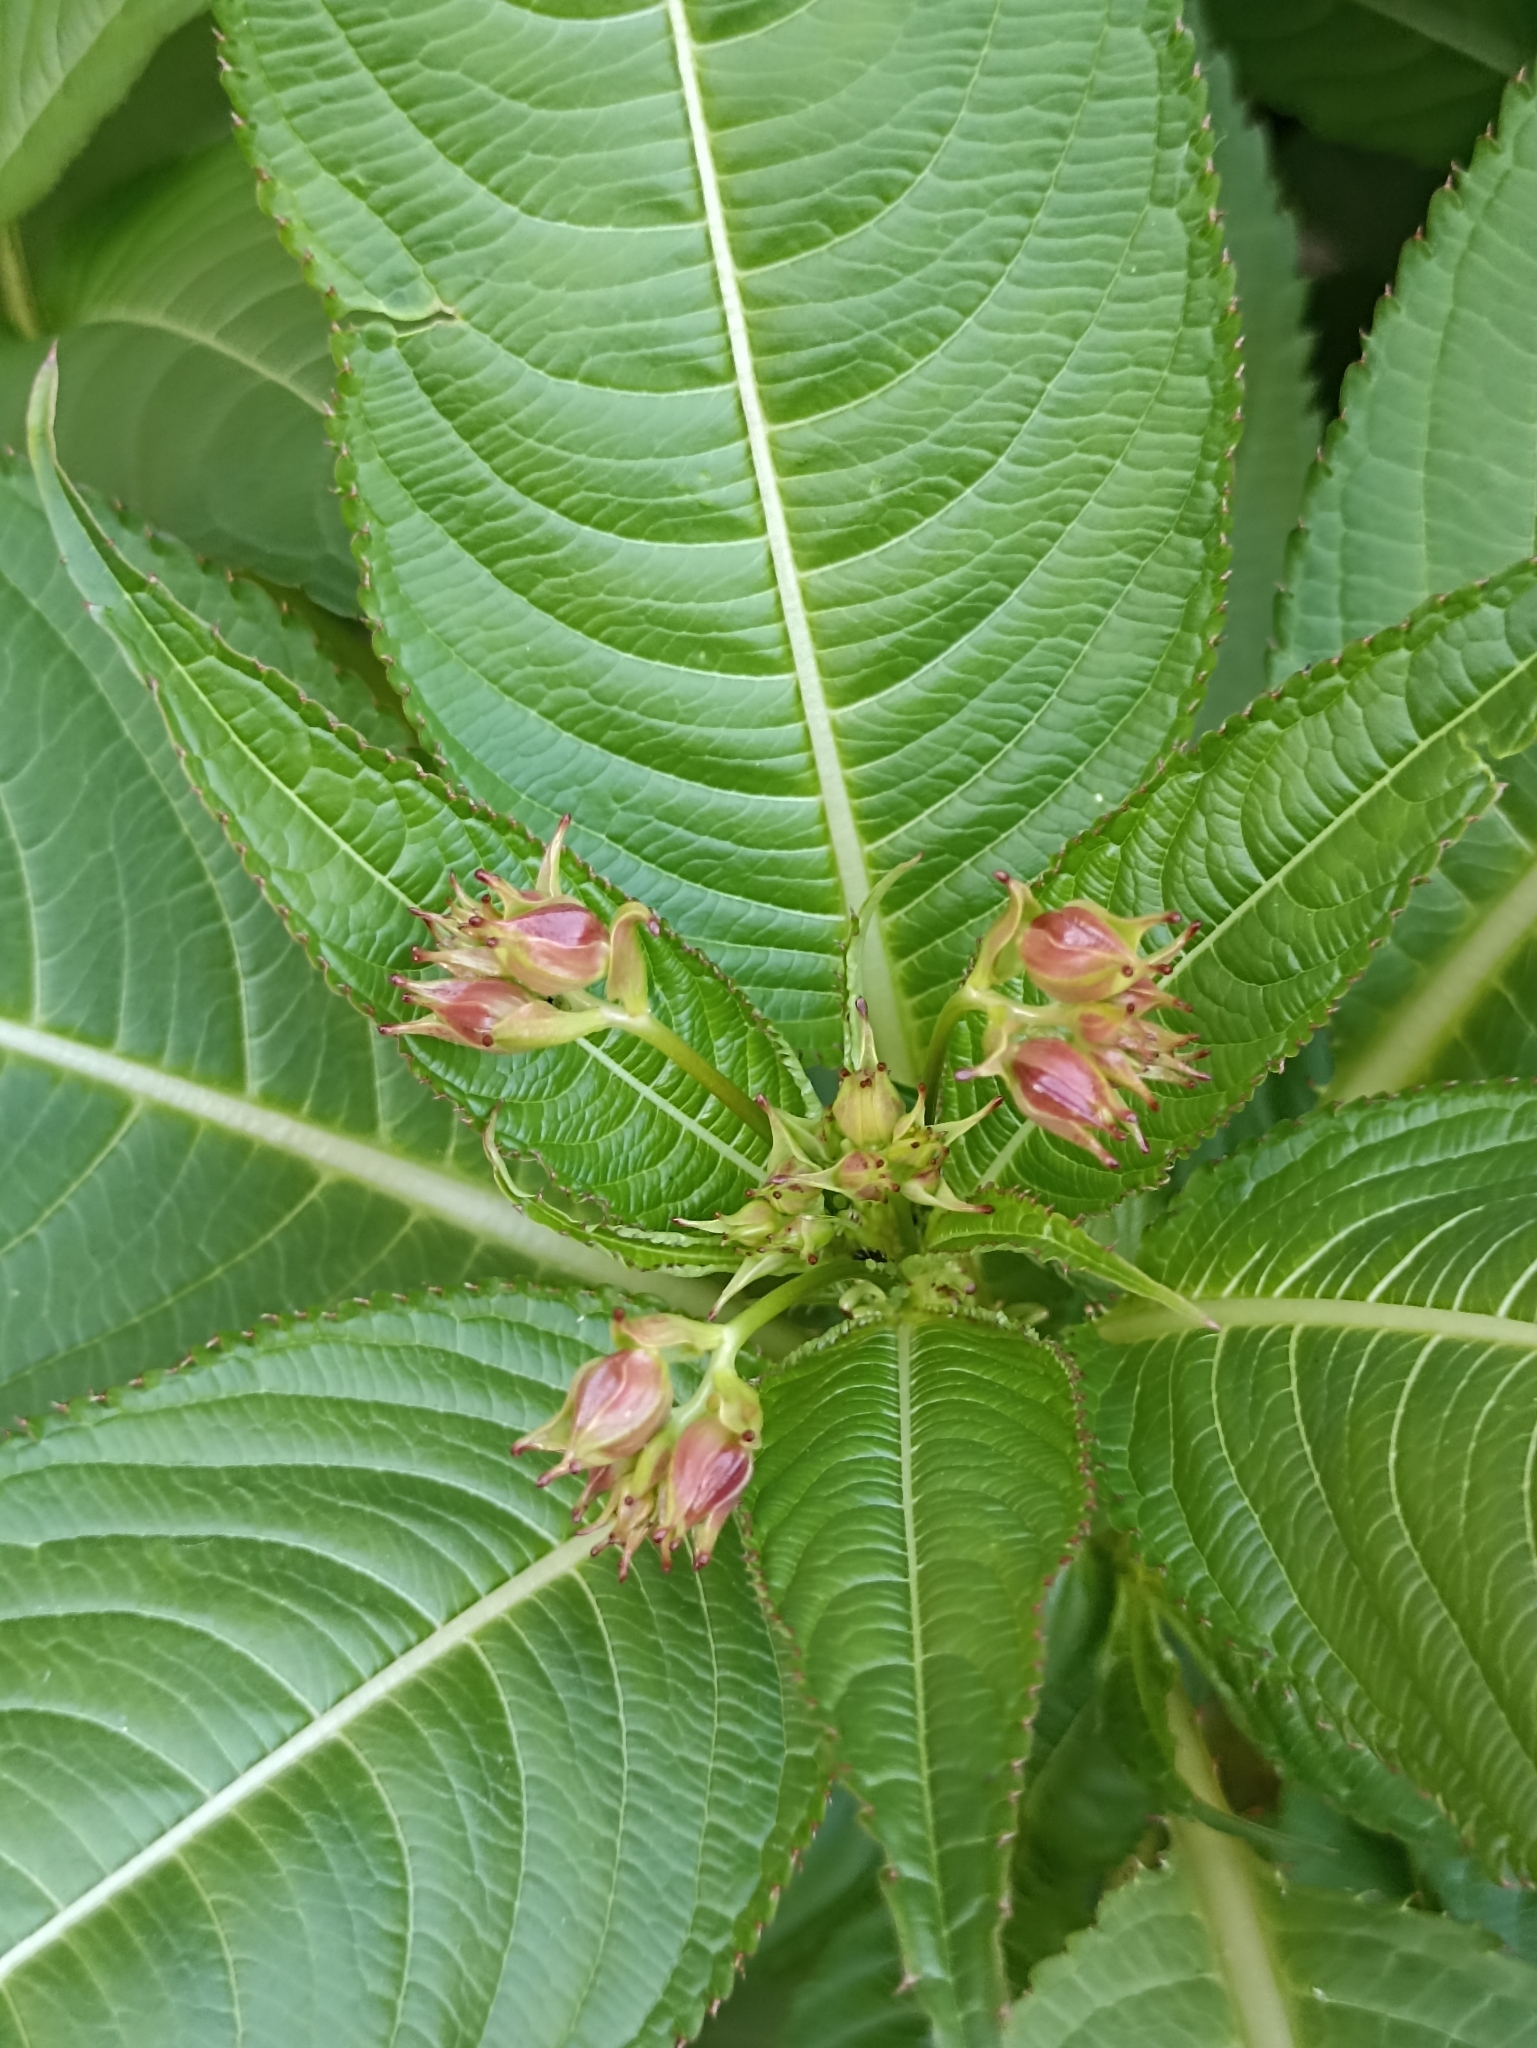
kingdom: Plantae
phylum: Tracheophyta
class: Magnoliopsida
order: Ericales
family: Balsaminaceae
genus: Impatiens
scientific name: Impatiens glandulifera
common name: Himalayan balsam
